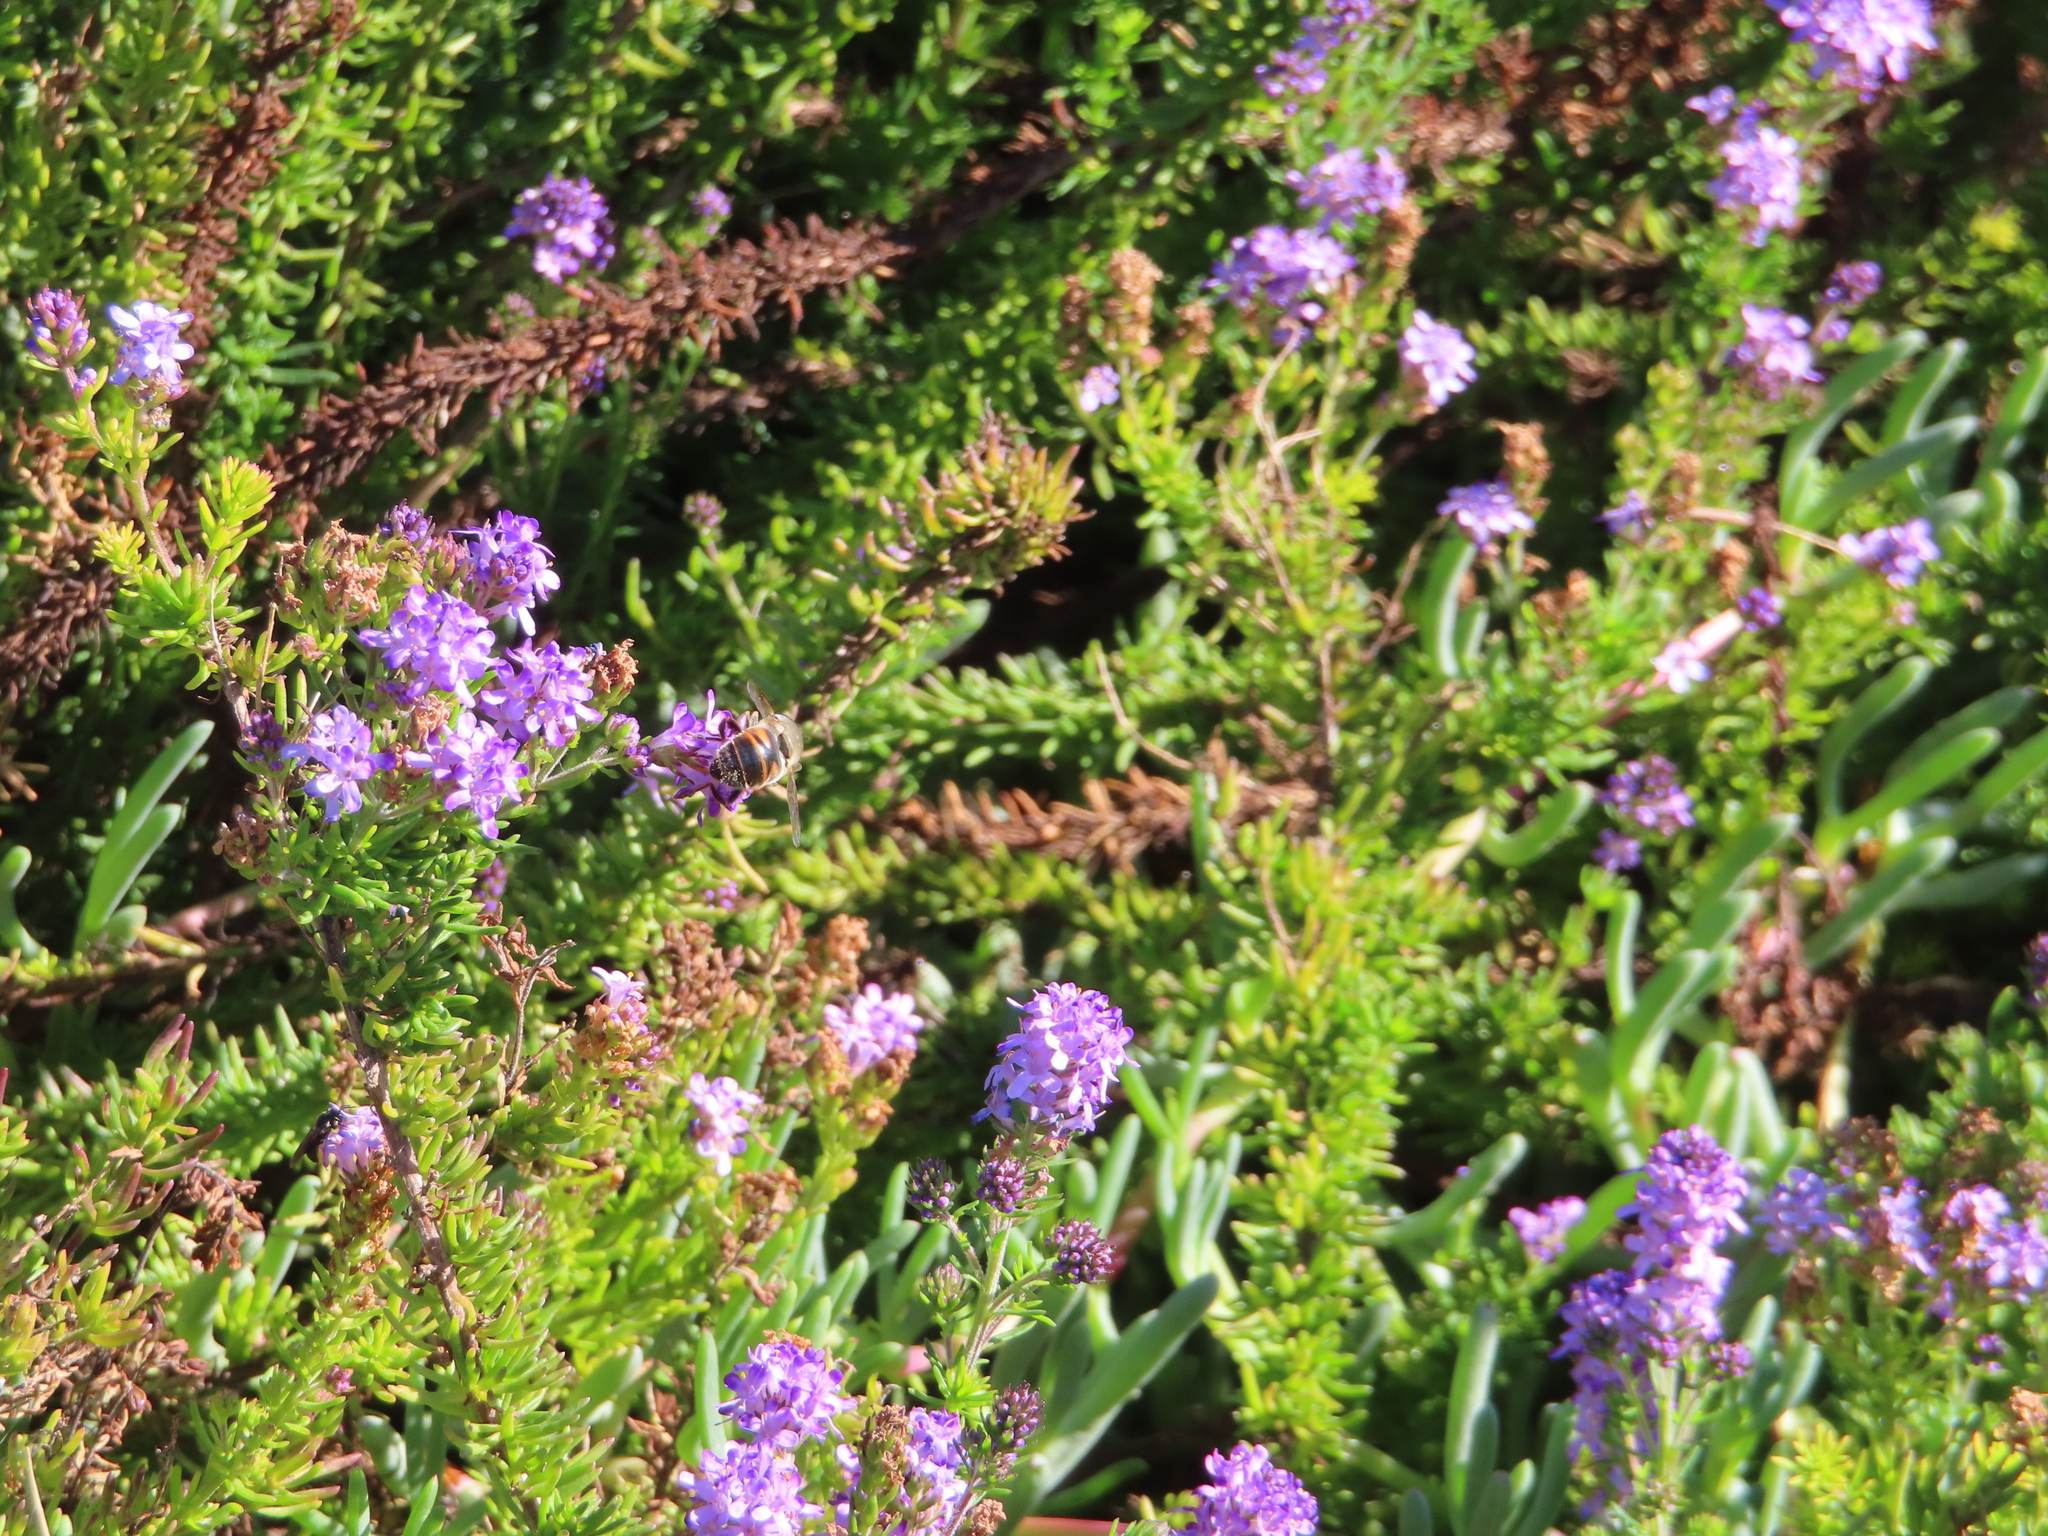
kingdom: Animalia
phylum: Arthropoda
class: Insecta
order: Diptera
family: Syrphidae
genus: Eristalis
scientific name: Eristalis tenax
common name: Drone fly
